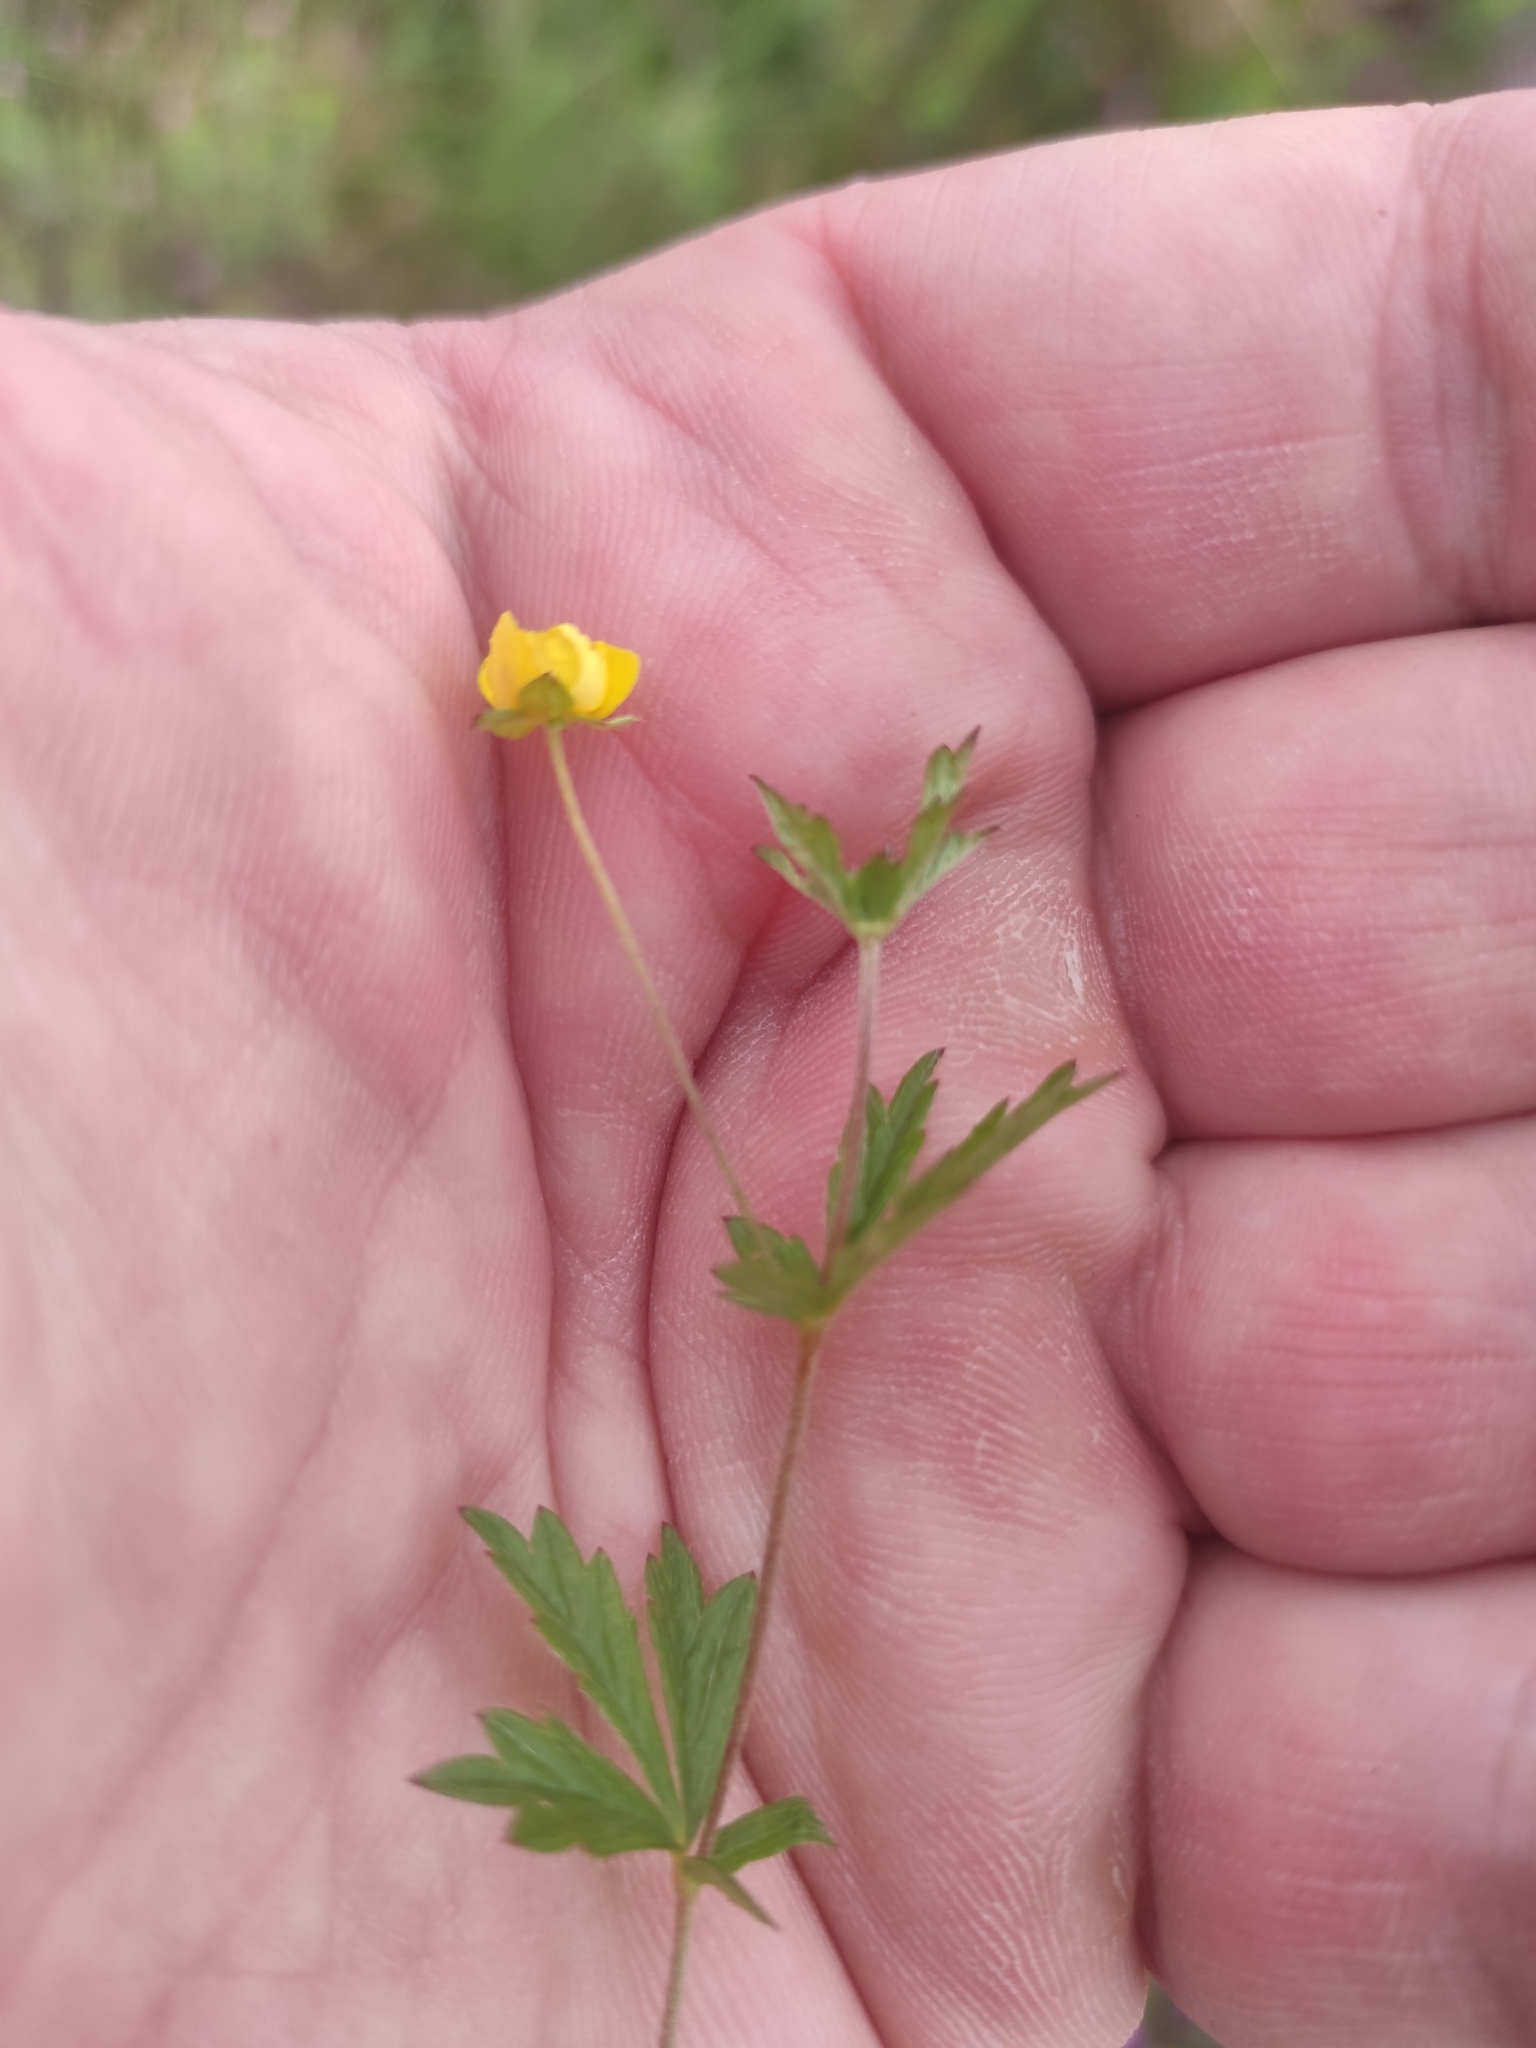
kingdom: Plantae
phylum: Tracheophyta
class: Magnoliopsida
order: Rosales
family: Rosaceae
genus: Potentilla
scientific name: Potentilla erecta
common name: Tormentil
